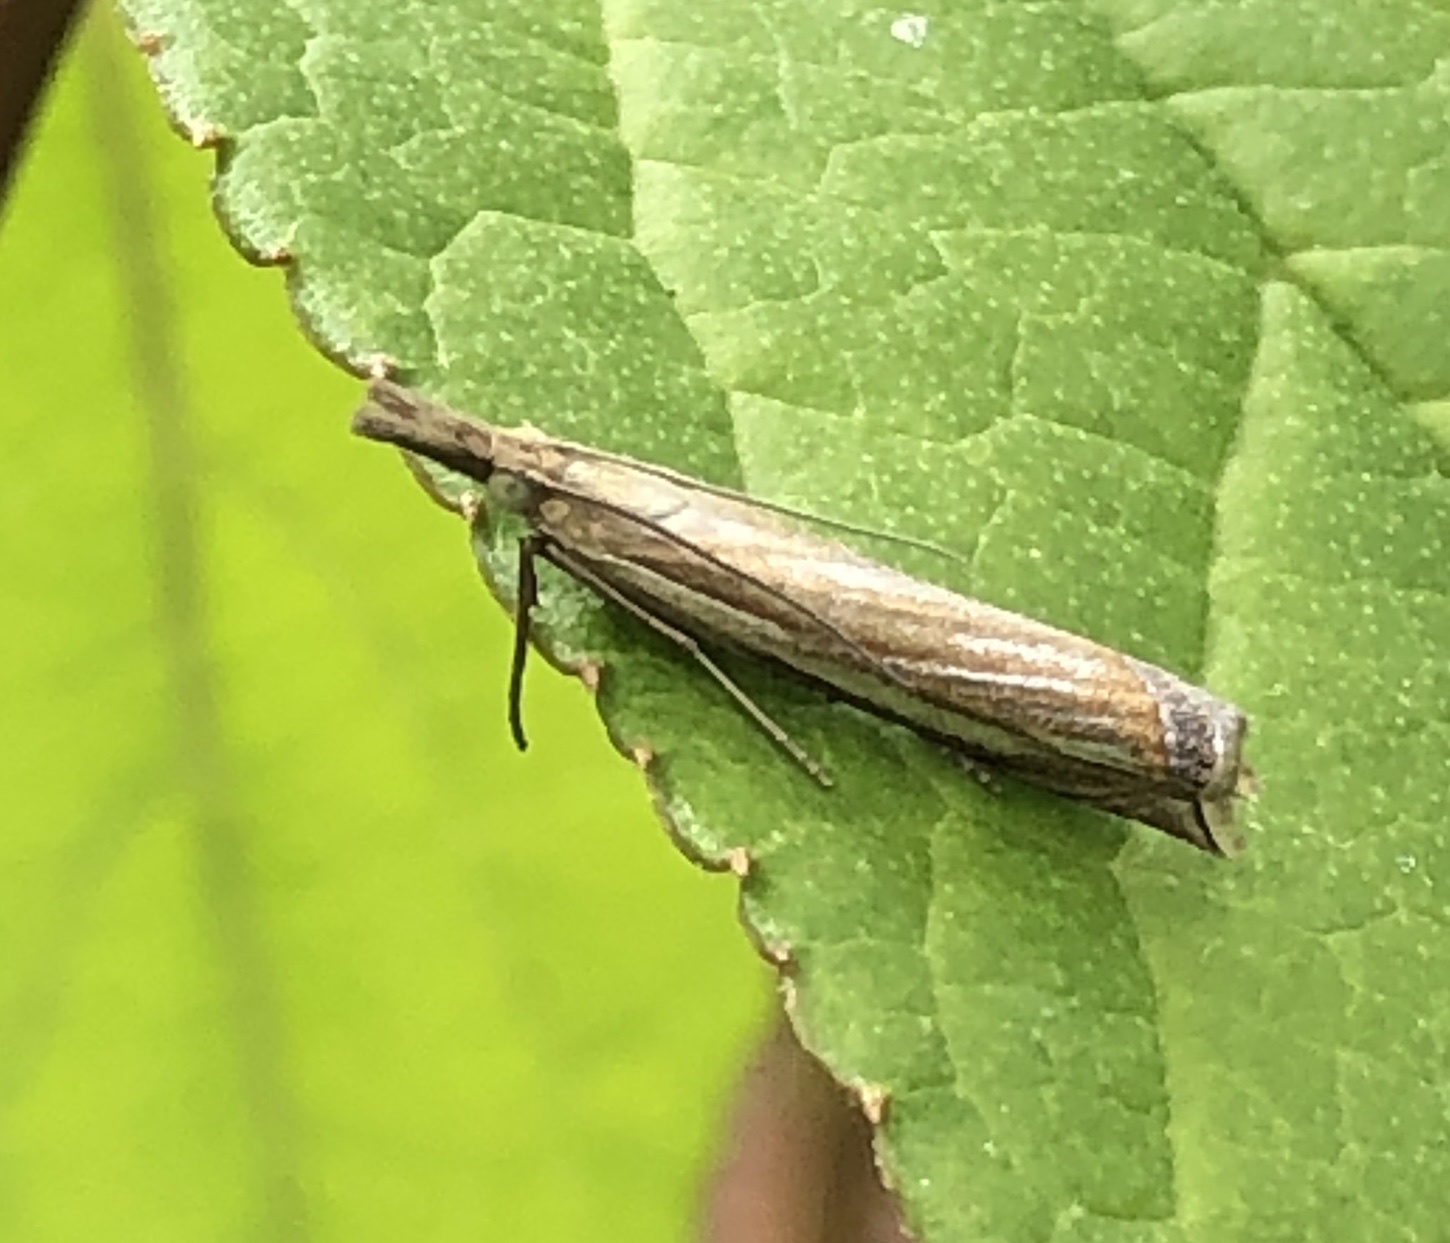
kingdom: Animalia
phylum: Arthropoda
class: Insecta
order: Lepidoptera
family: Crambidae
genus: Crambus
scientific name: Crambus pascuella
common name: Inlaid grass-veneer
